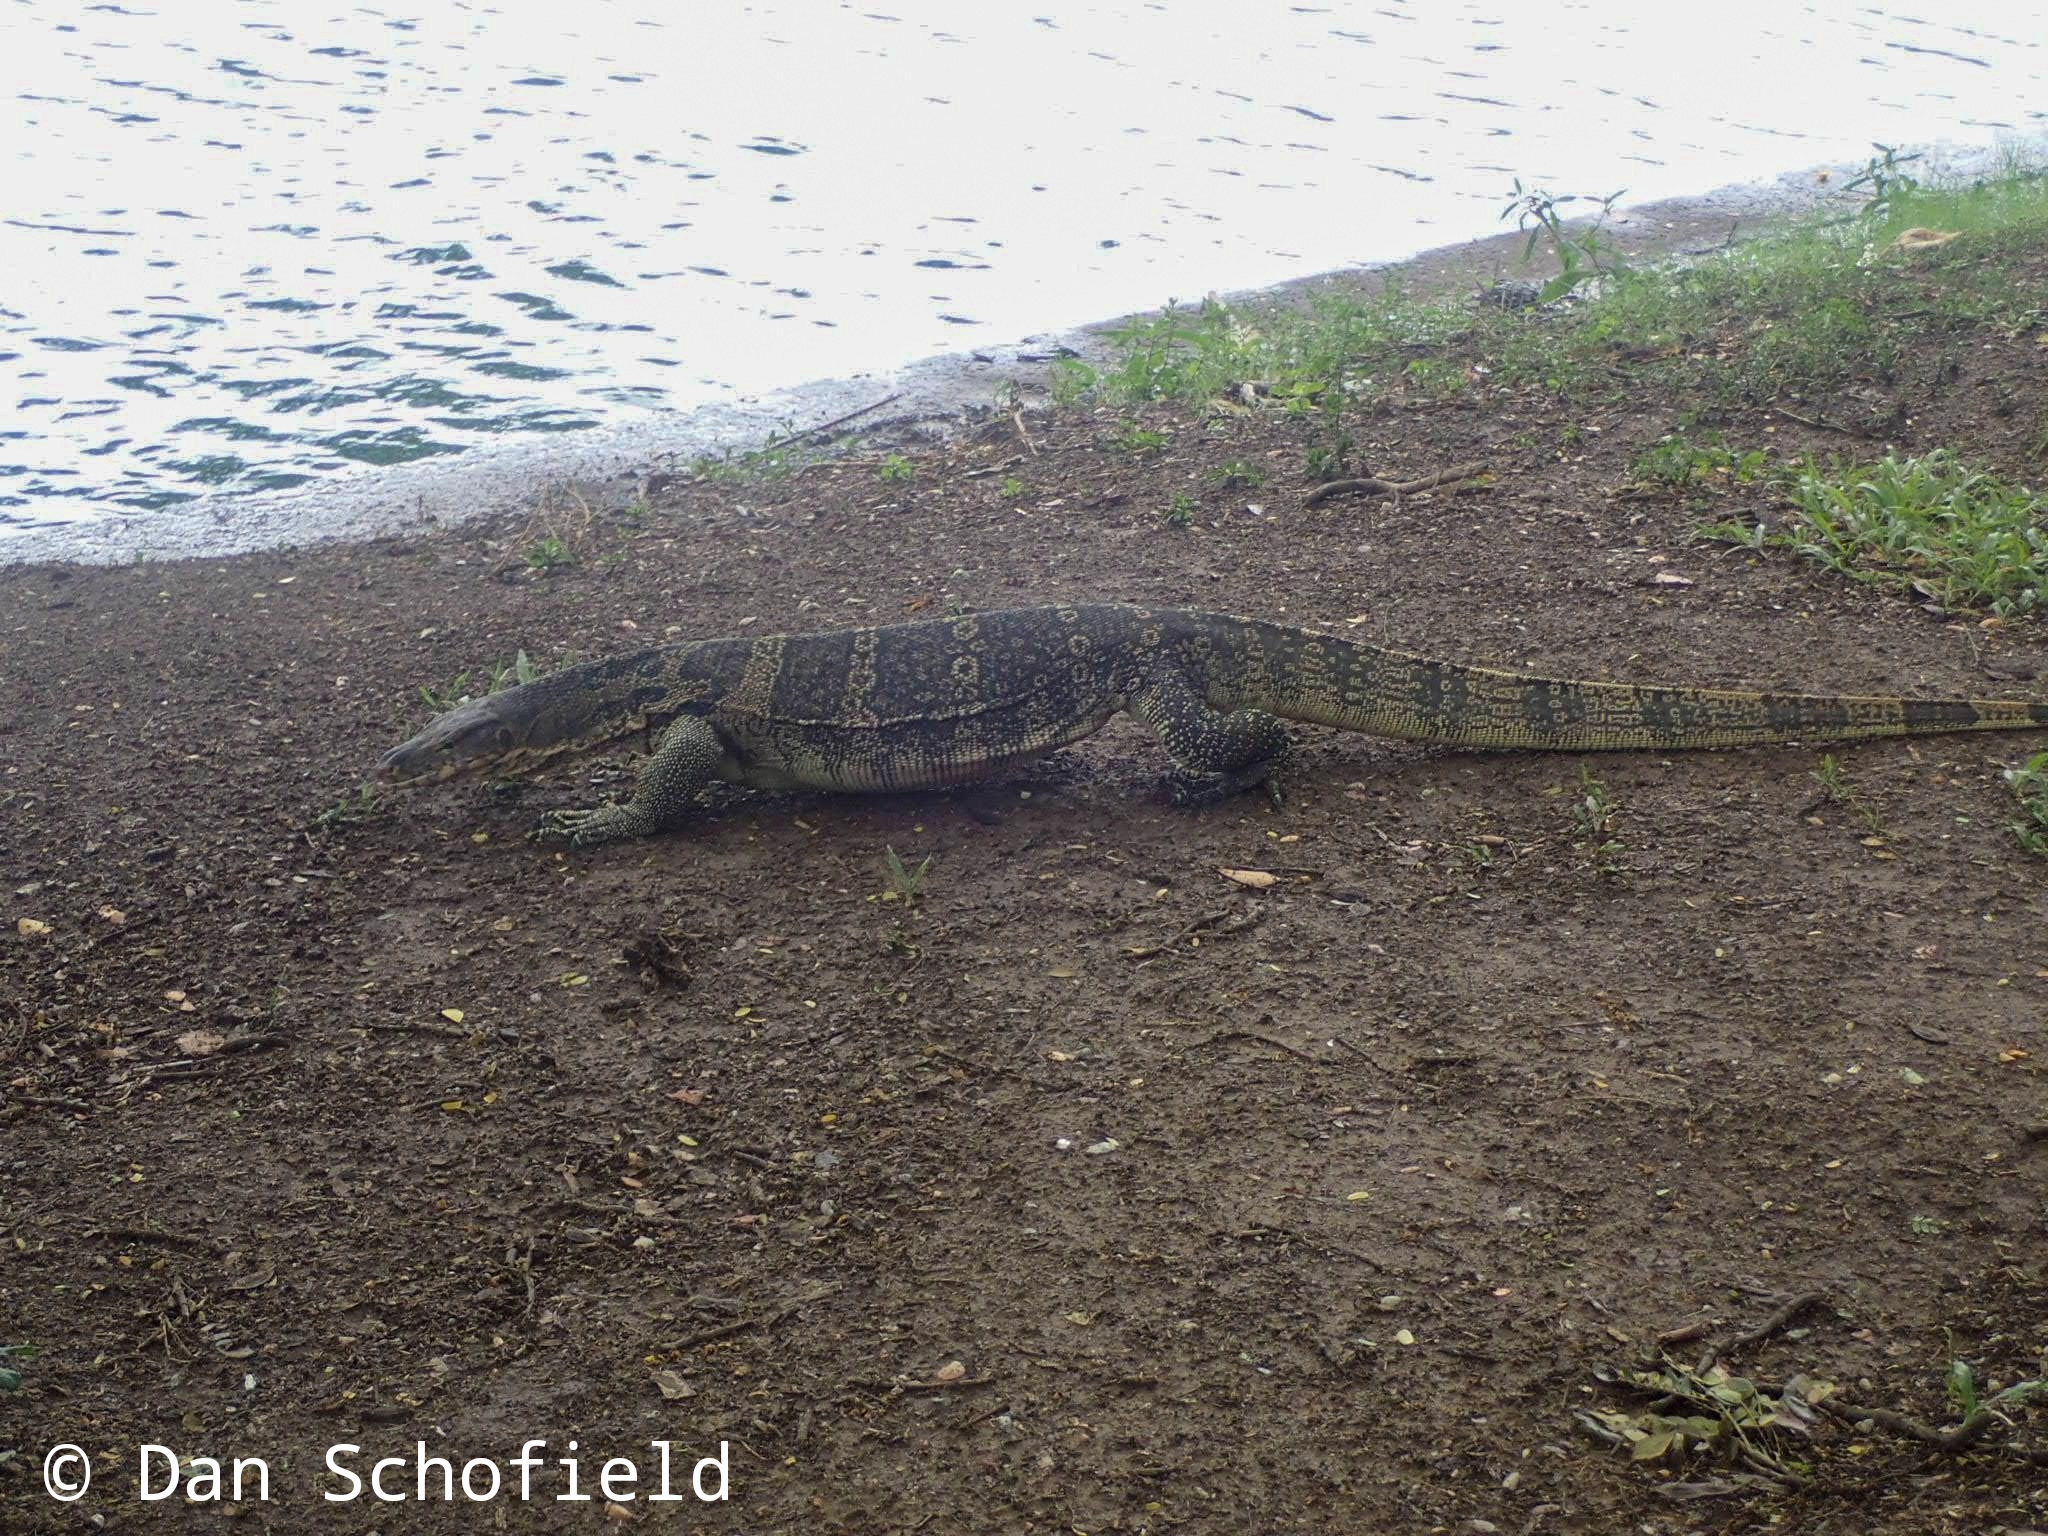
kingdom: Animalia
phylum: Chordata
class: Squamata
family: Varanidae
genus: Varanus
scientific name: Varanus salvator
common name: Common water monitor
